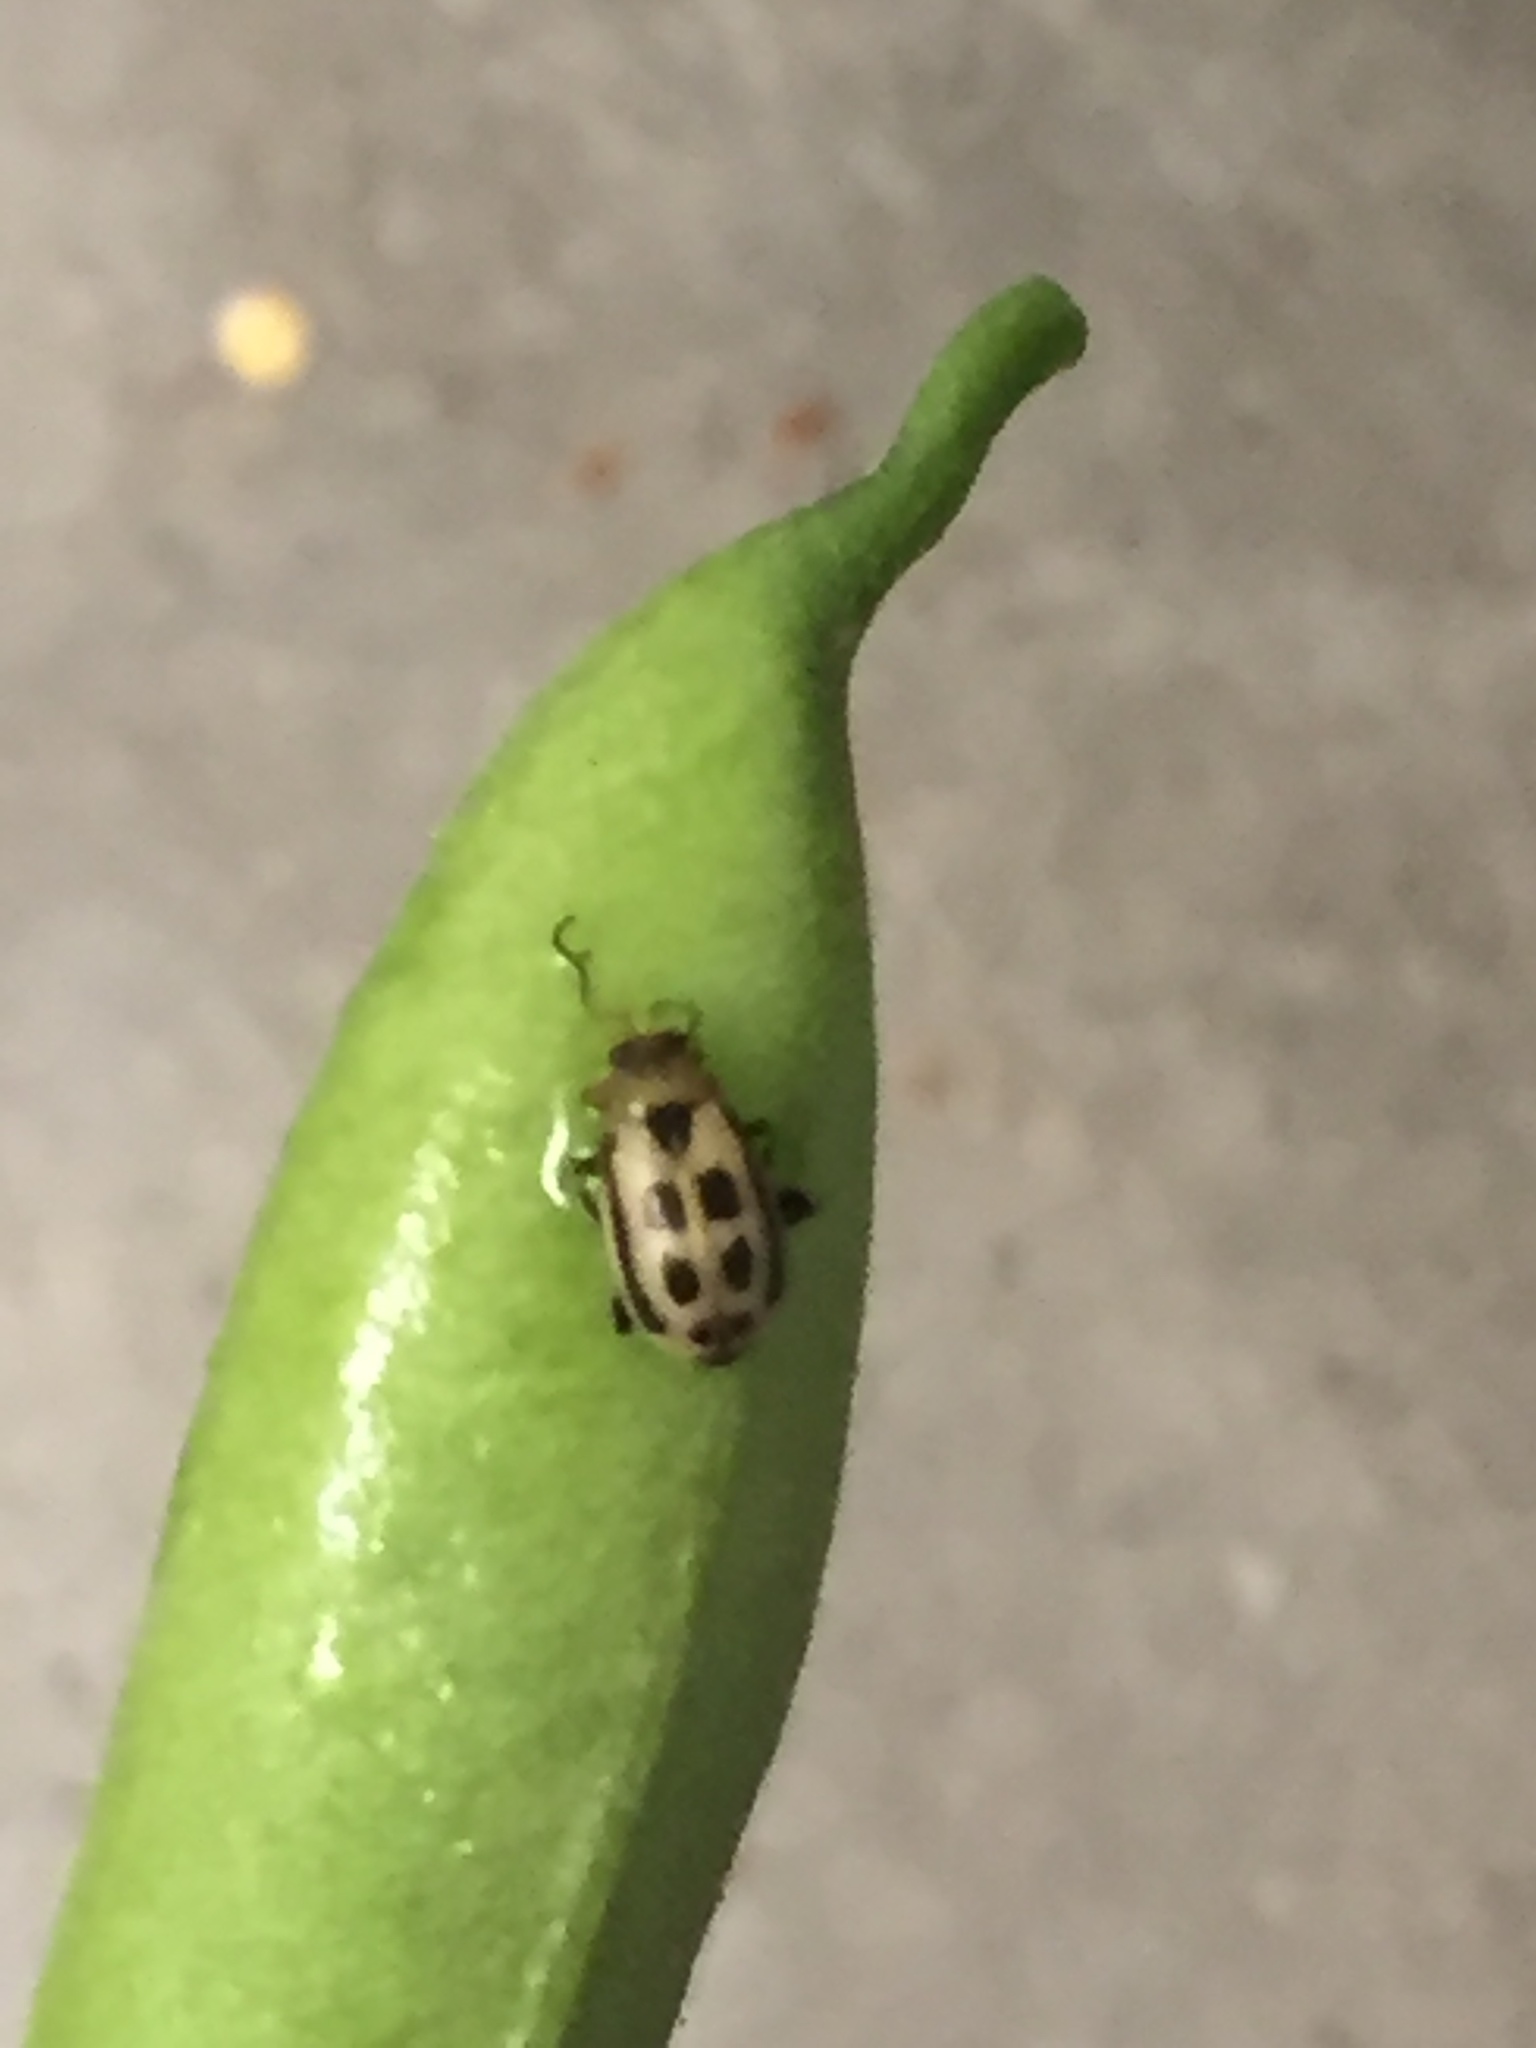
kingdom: Animalia
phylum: Arthropoda
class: Insecta
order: Coleoptera
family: Chrysomelidae
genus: Cerotoma
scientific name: Cerotoma trifurcata
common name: Bean leaf beetle
